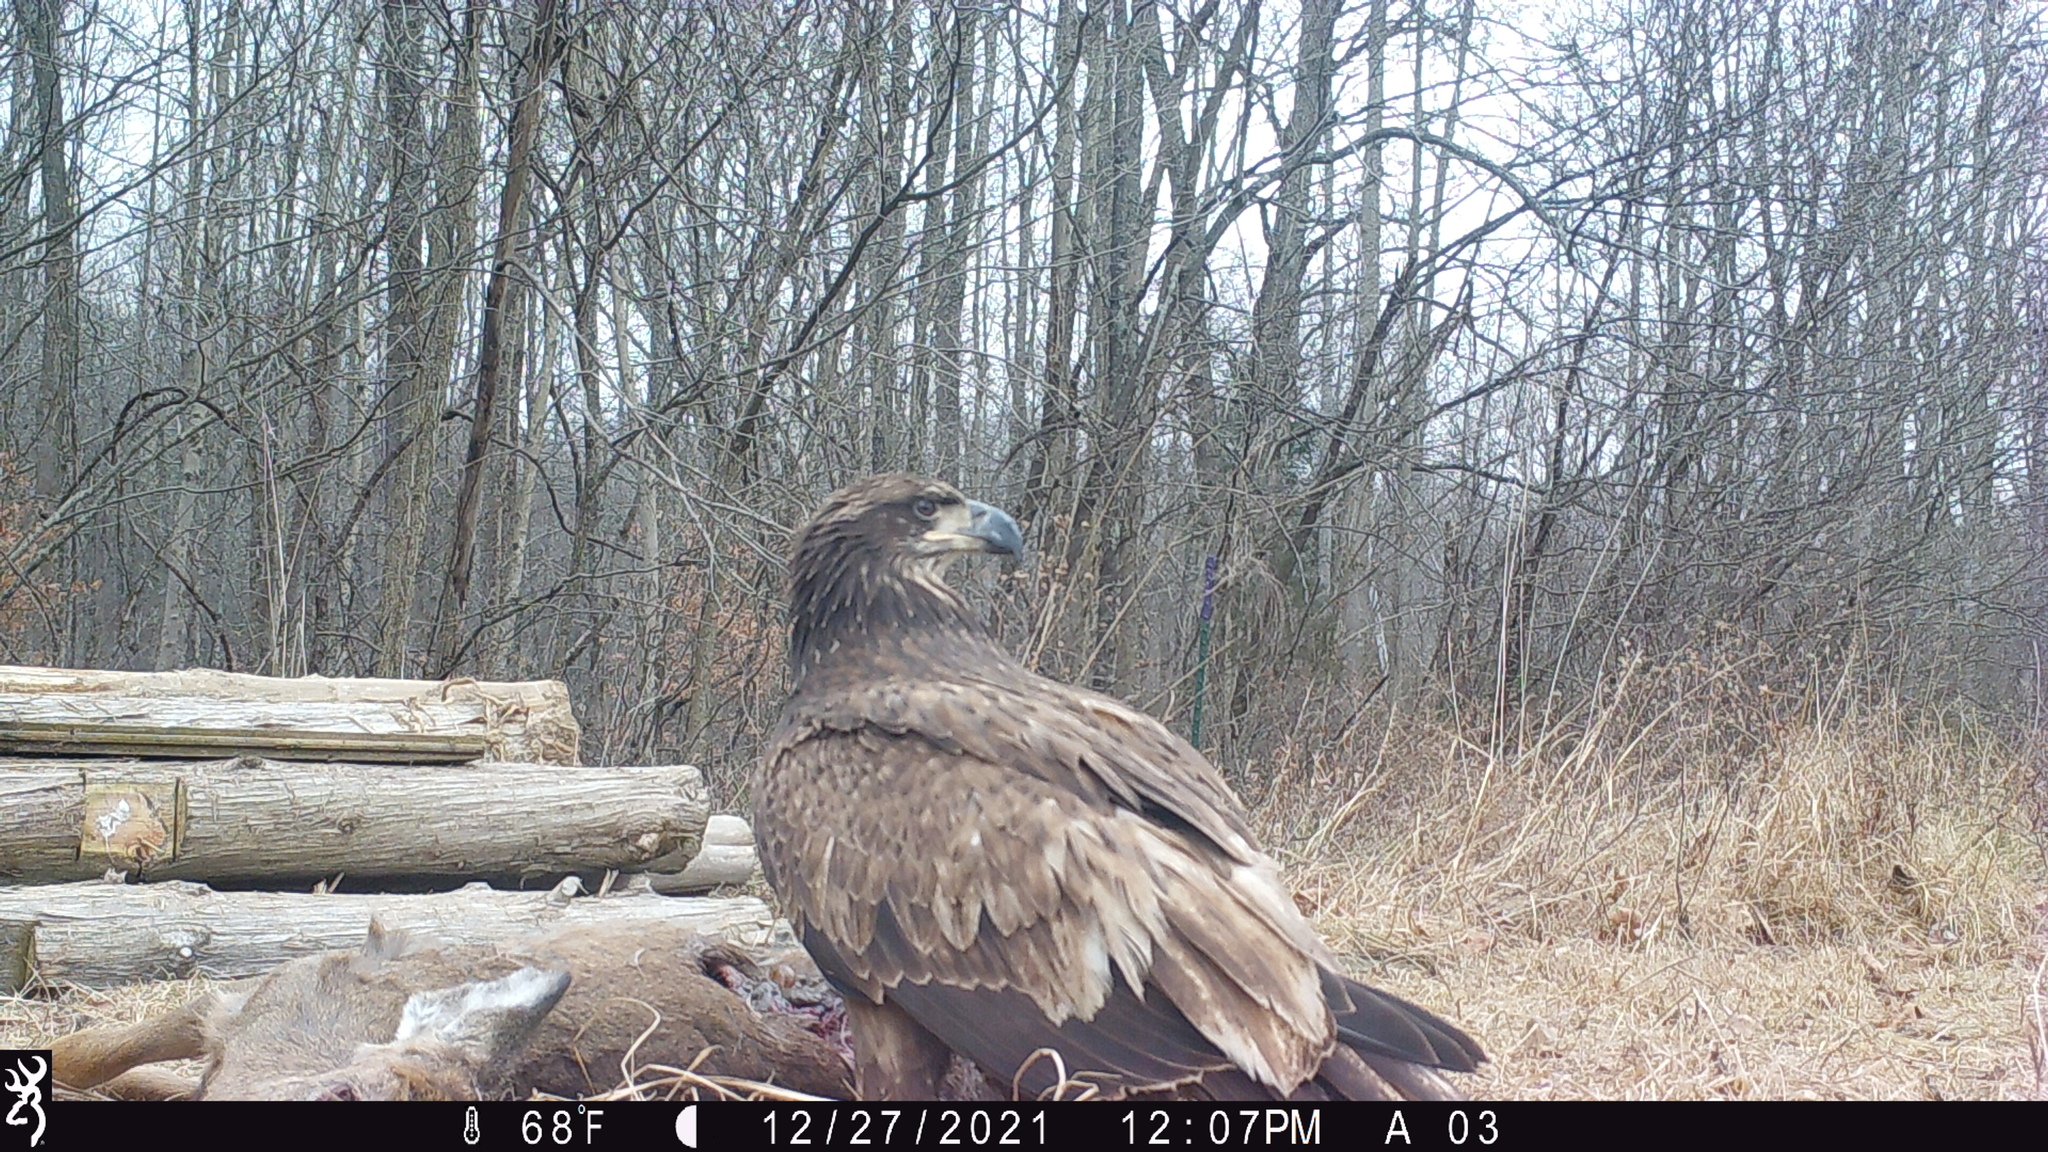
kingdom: Animalia
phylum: Chordata
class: Aves
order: Accipitriformes
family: Accipitridae
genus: Haliaeetus
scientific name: Haliaeetus leucocephalus
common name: Bald eagle
